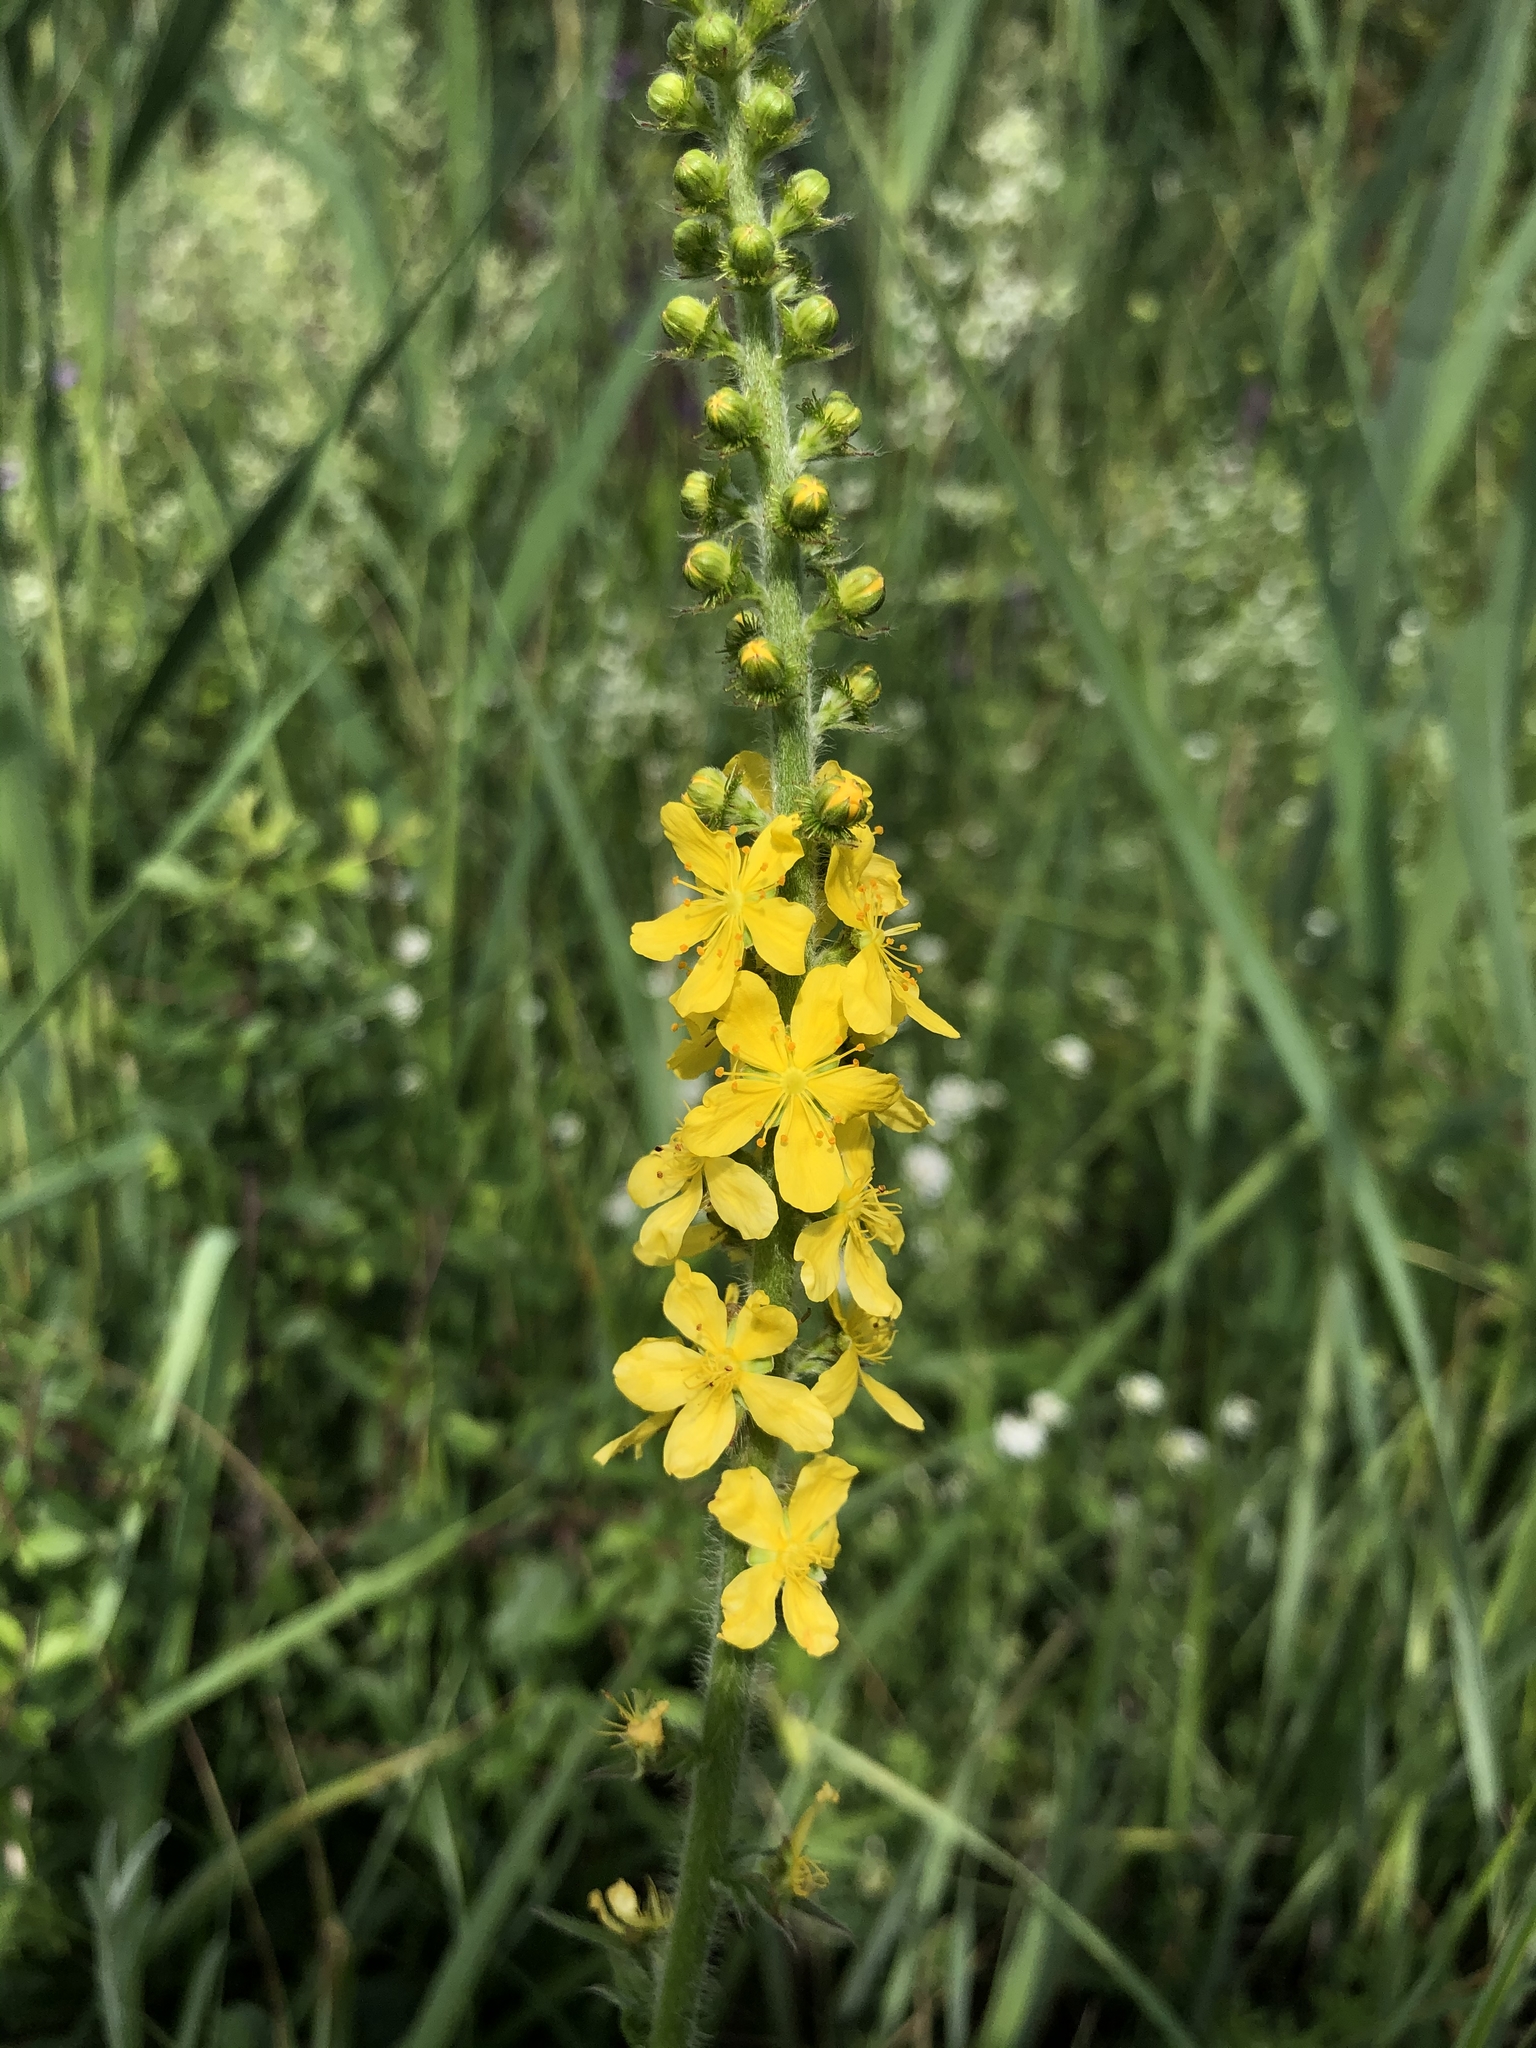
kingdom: Plantae
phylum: Tracheophyta
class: Magnoliopsida
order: Rosales
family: Rosaceae
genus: Agrimonia
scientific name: Agrimonia eupatoria
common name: Agrimony
